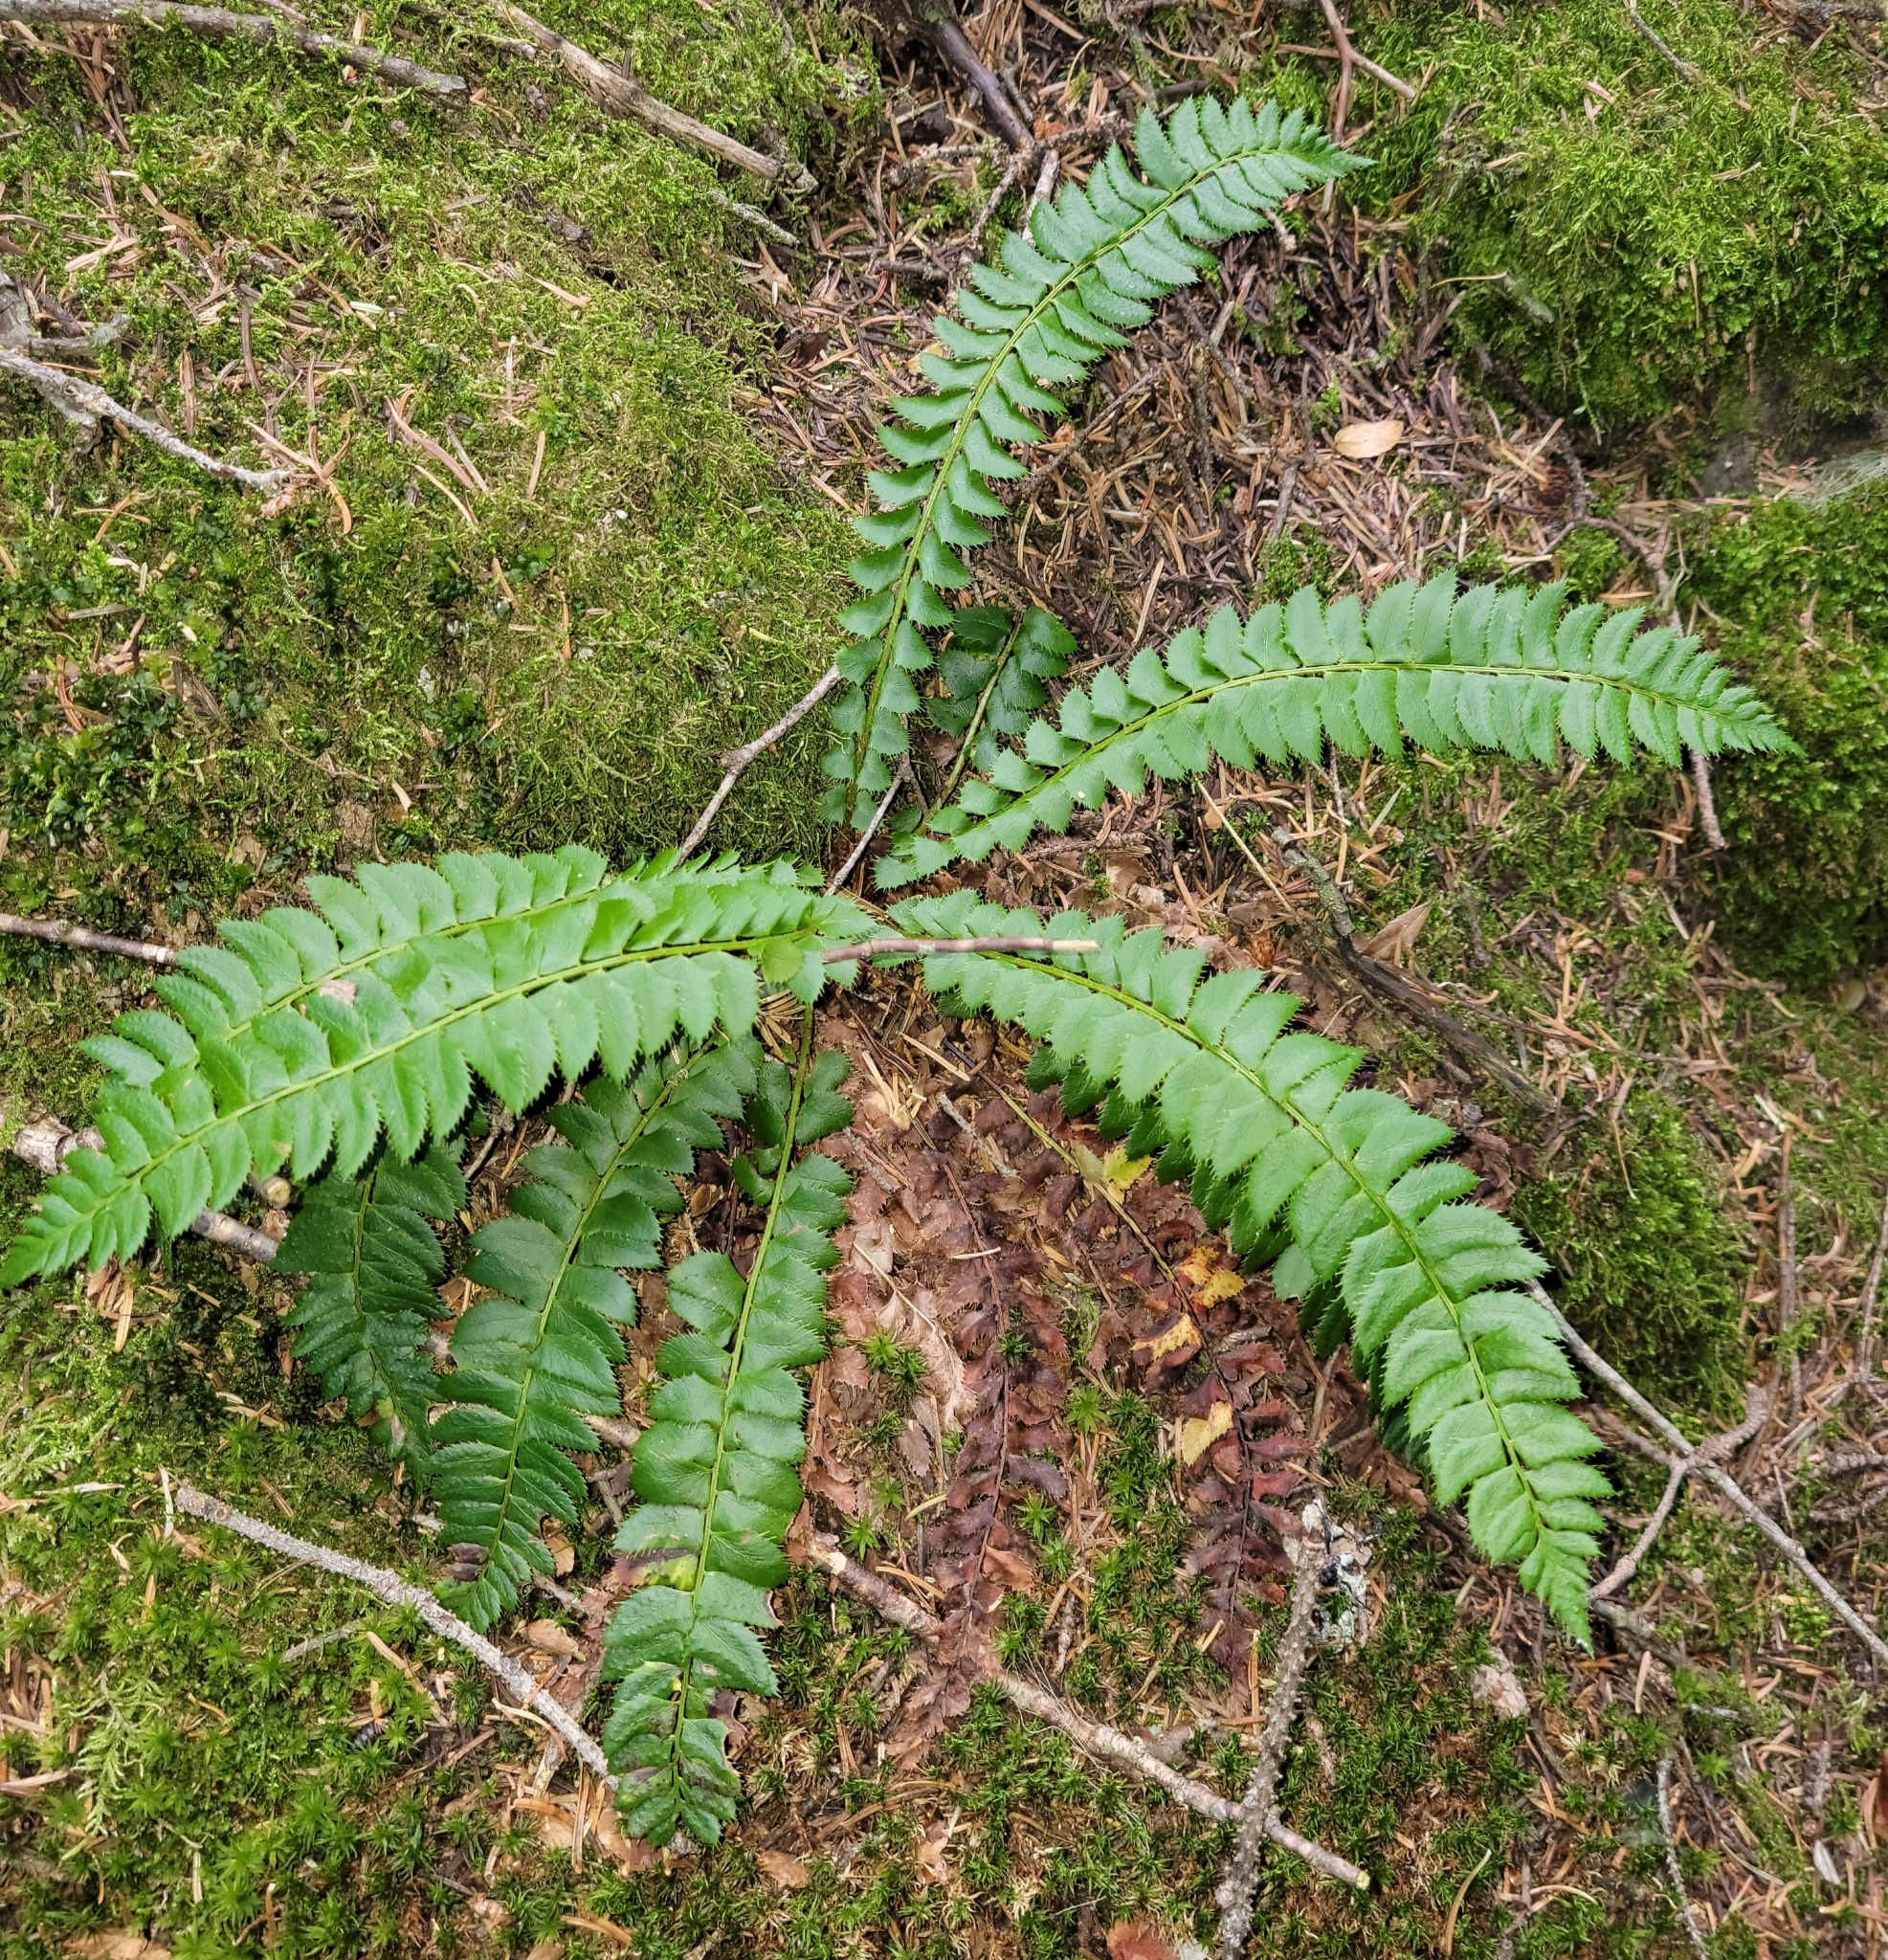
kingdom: Plantae
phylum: Tracheophyta
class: Polypodiopsida
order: Polypodiales
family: Dryopteridaceae
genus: Polystichum
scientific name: Polystichum lonchitis
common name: Holly fern
